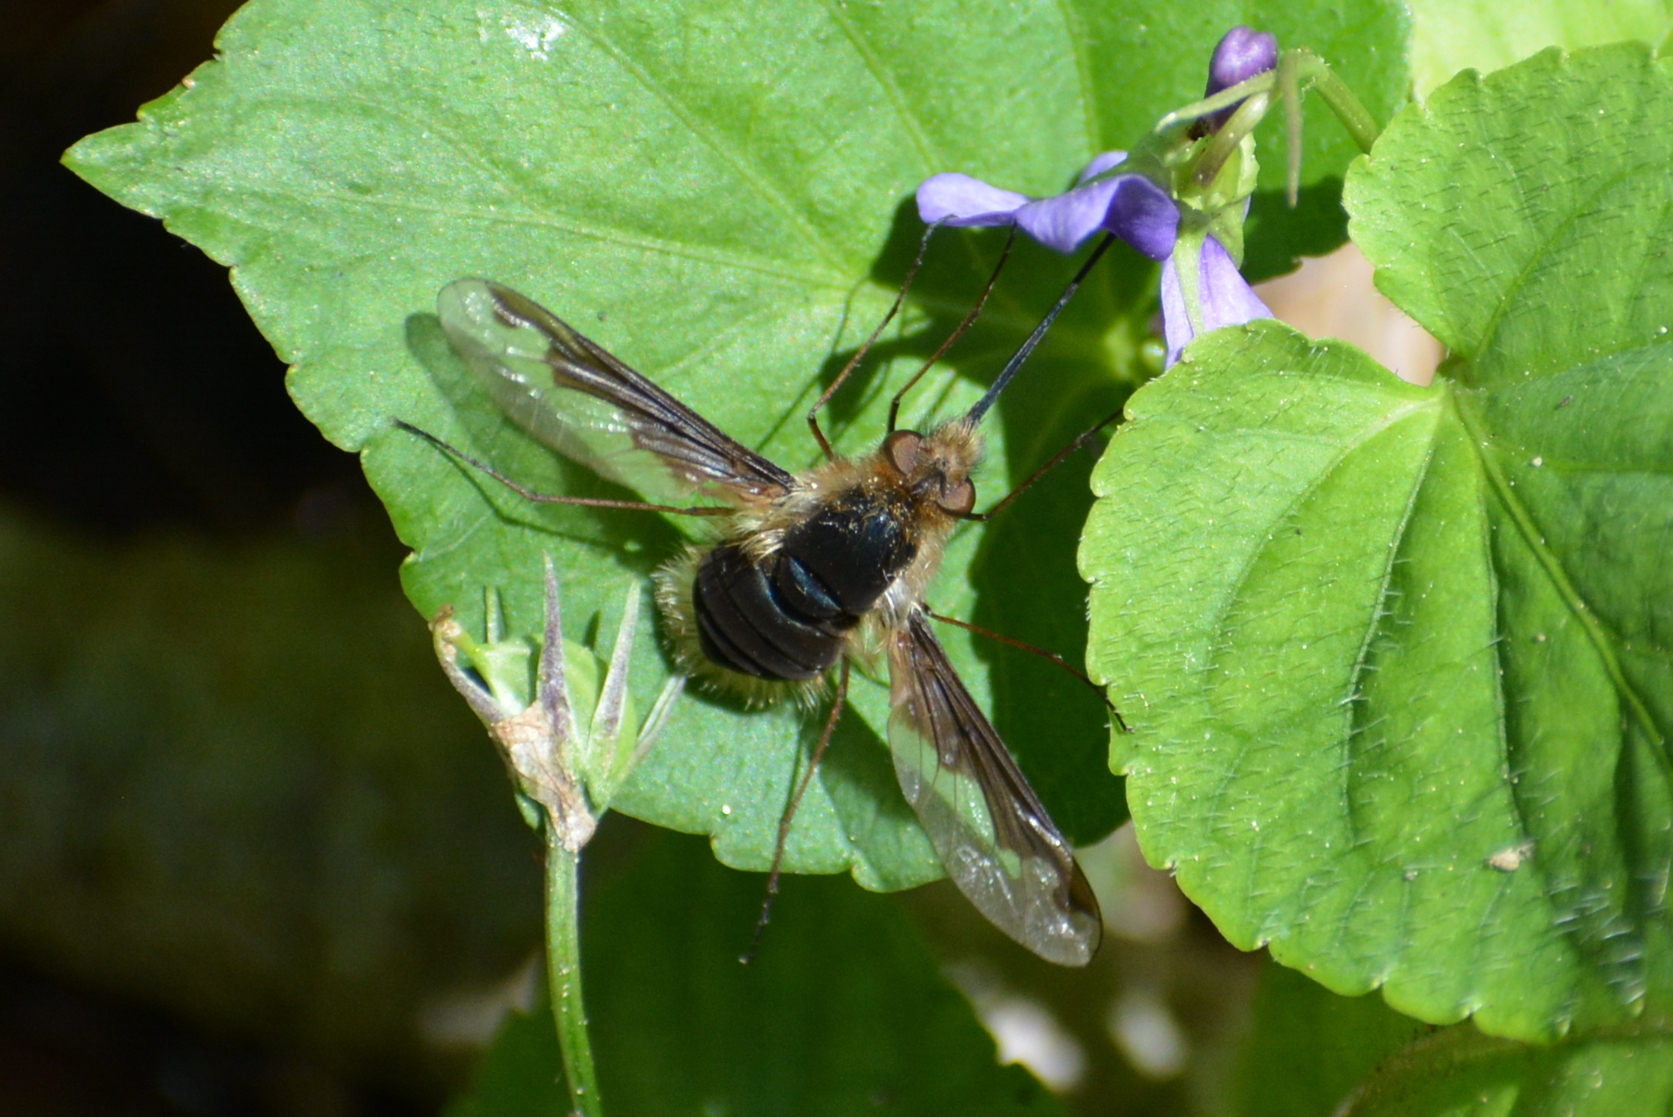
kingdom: Animalia
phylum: Arthropoda
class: Insecta
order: Diptera
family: Bombyliidae
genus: Bombylius
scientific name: Bombylius major
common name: Bee fly
